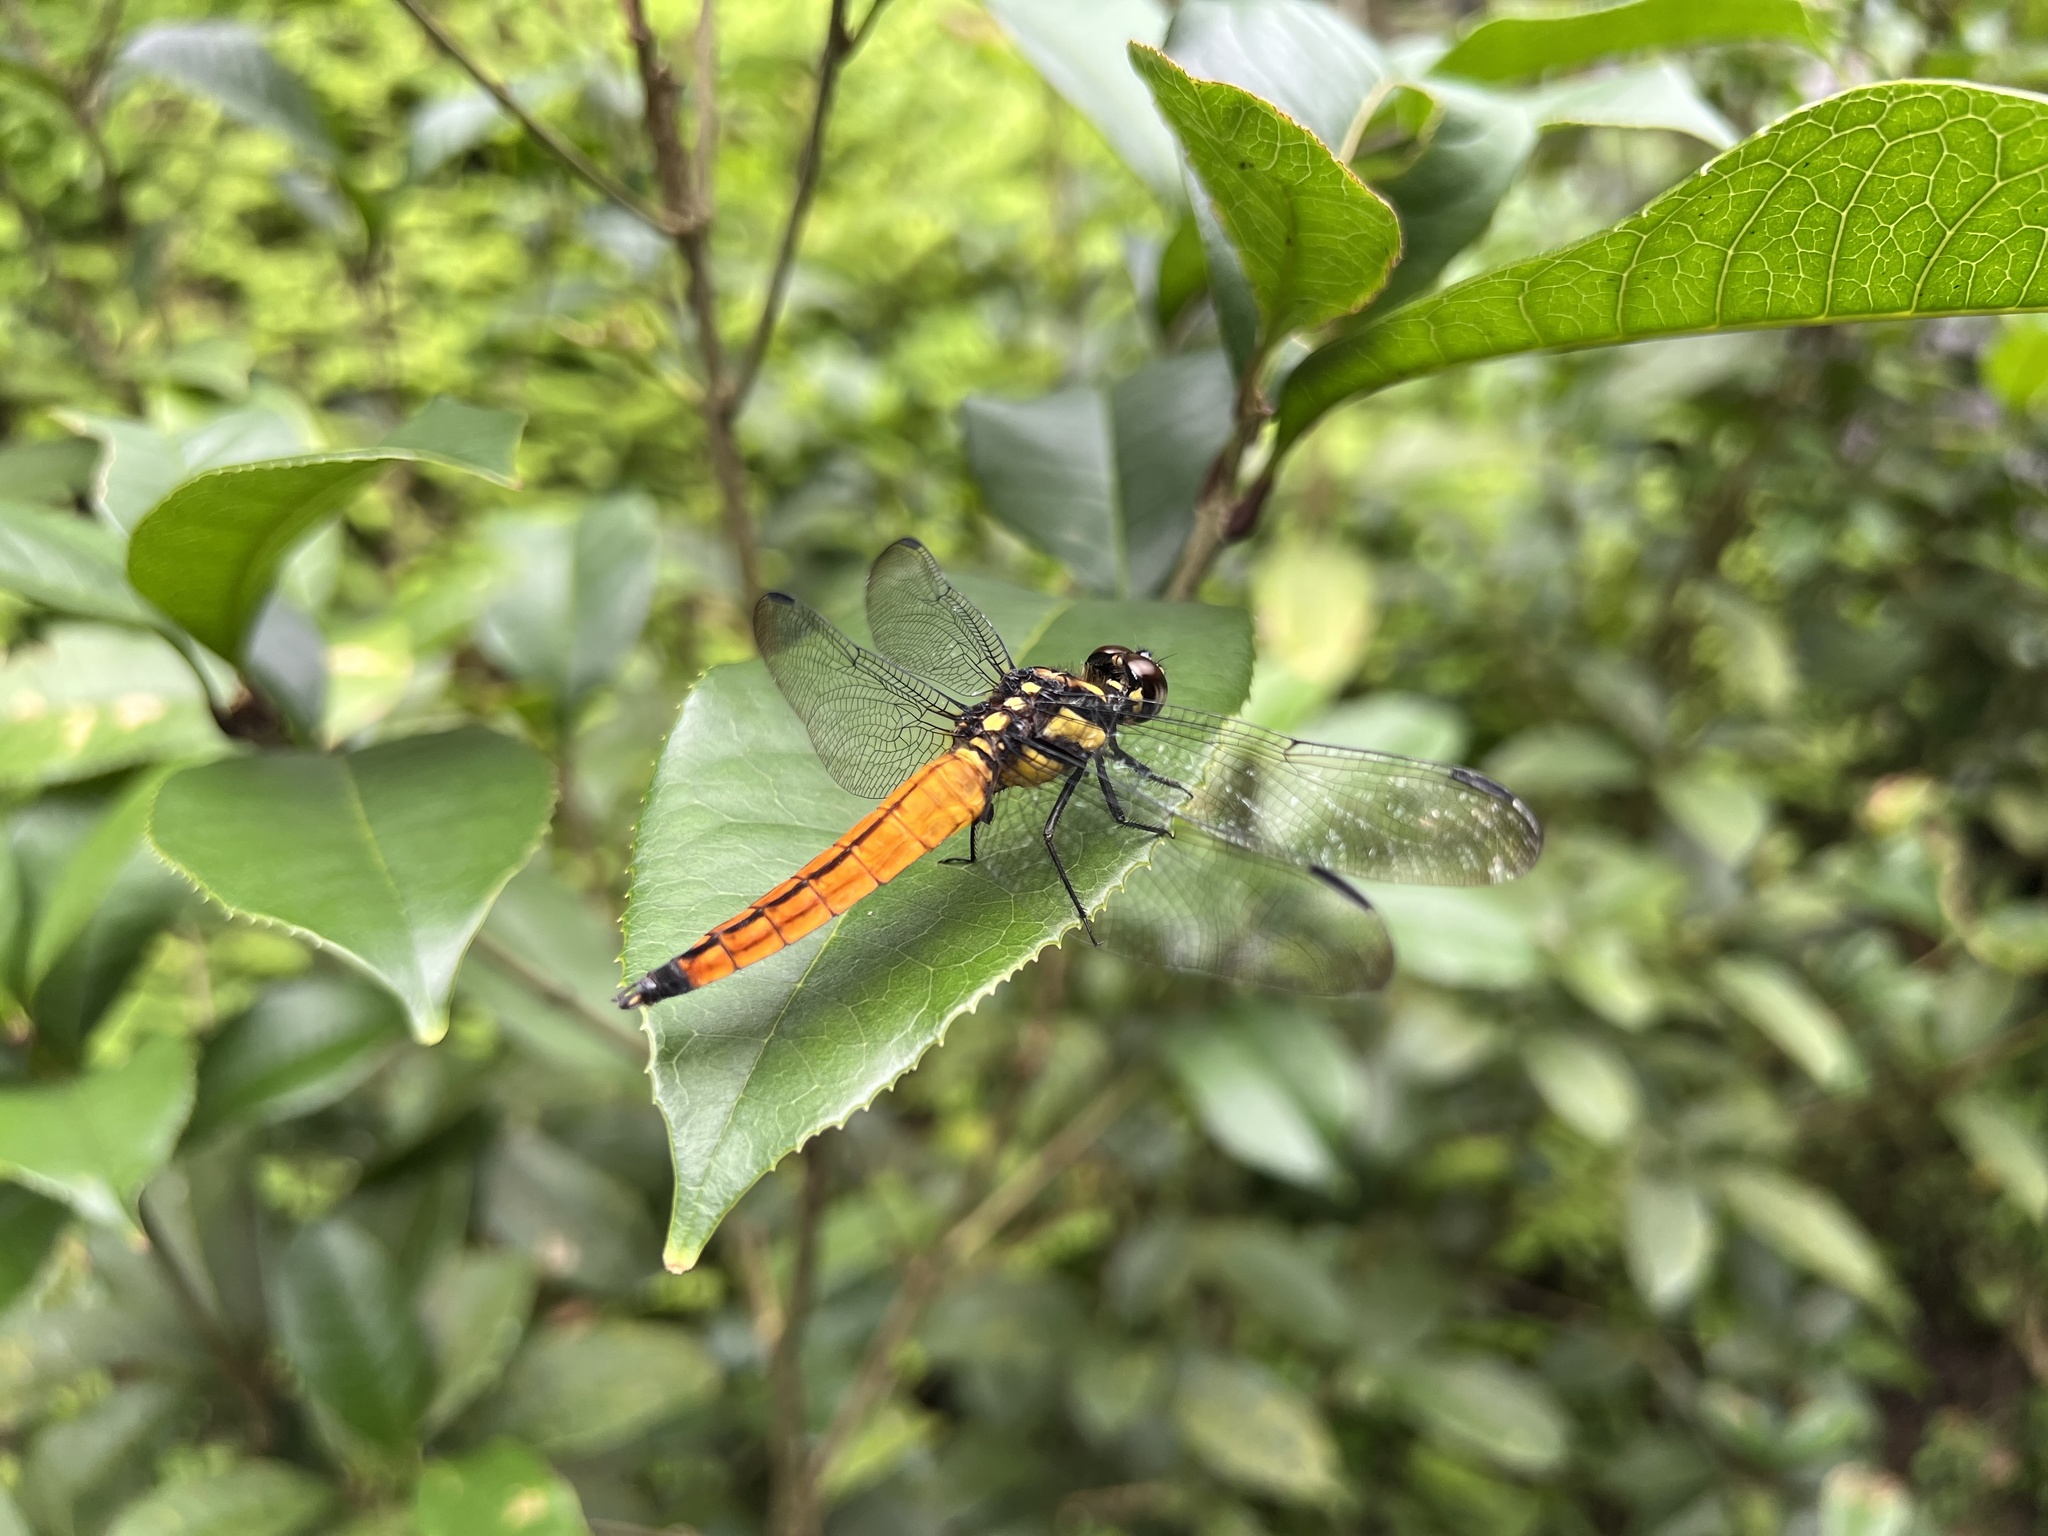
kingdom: Animalia
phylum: Arthropoda
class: Insecta
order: Odonata
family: Libellulidae
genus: Lyriothemis
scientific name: Lyriothemis tricolor
